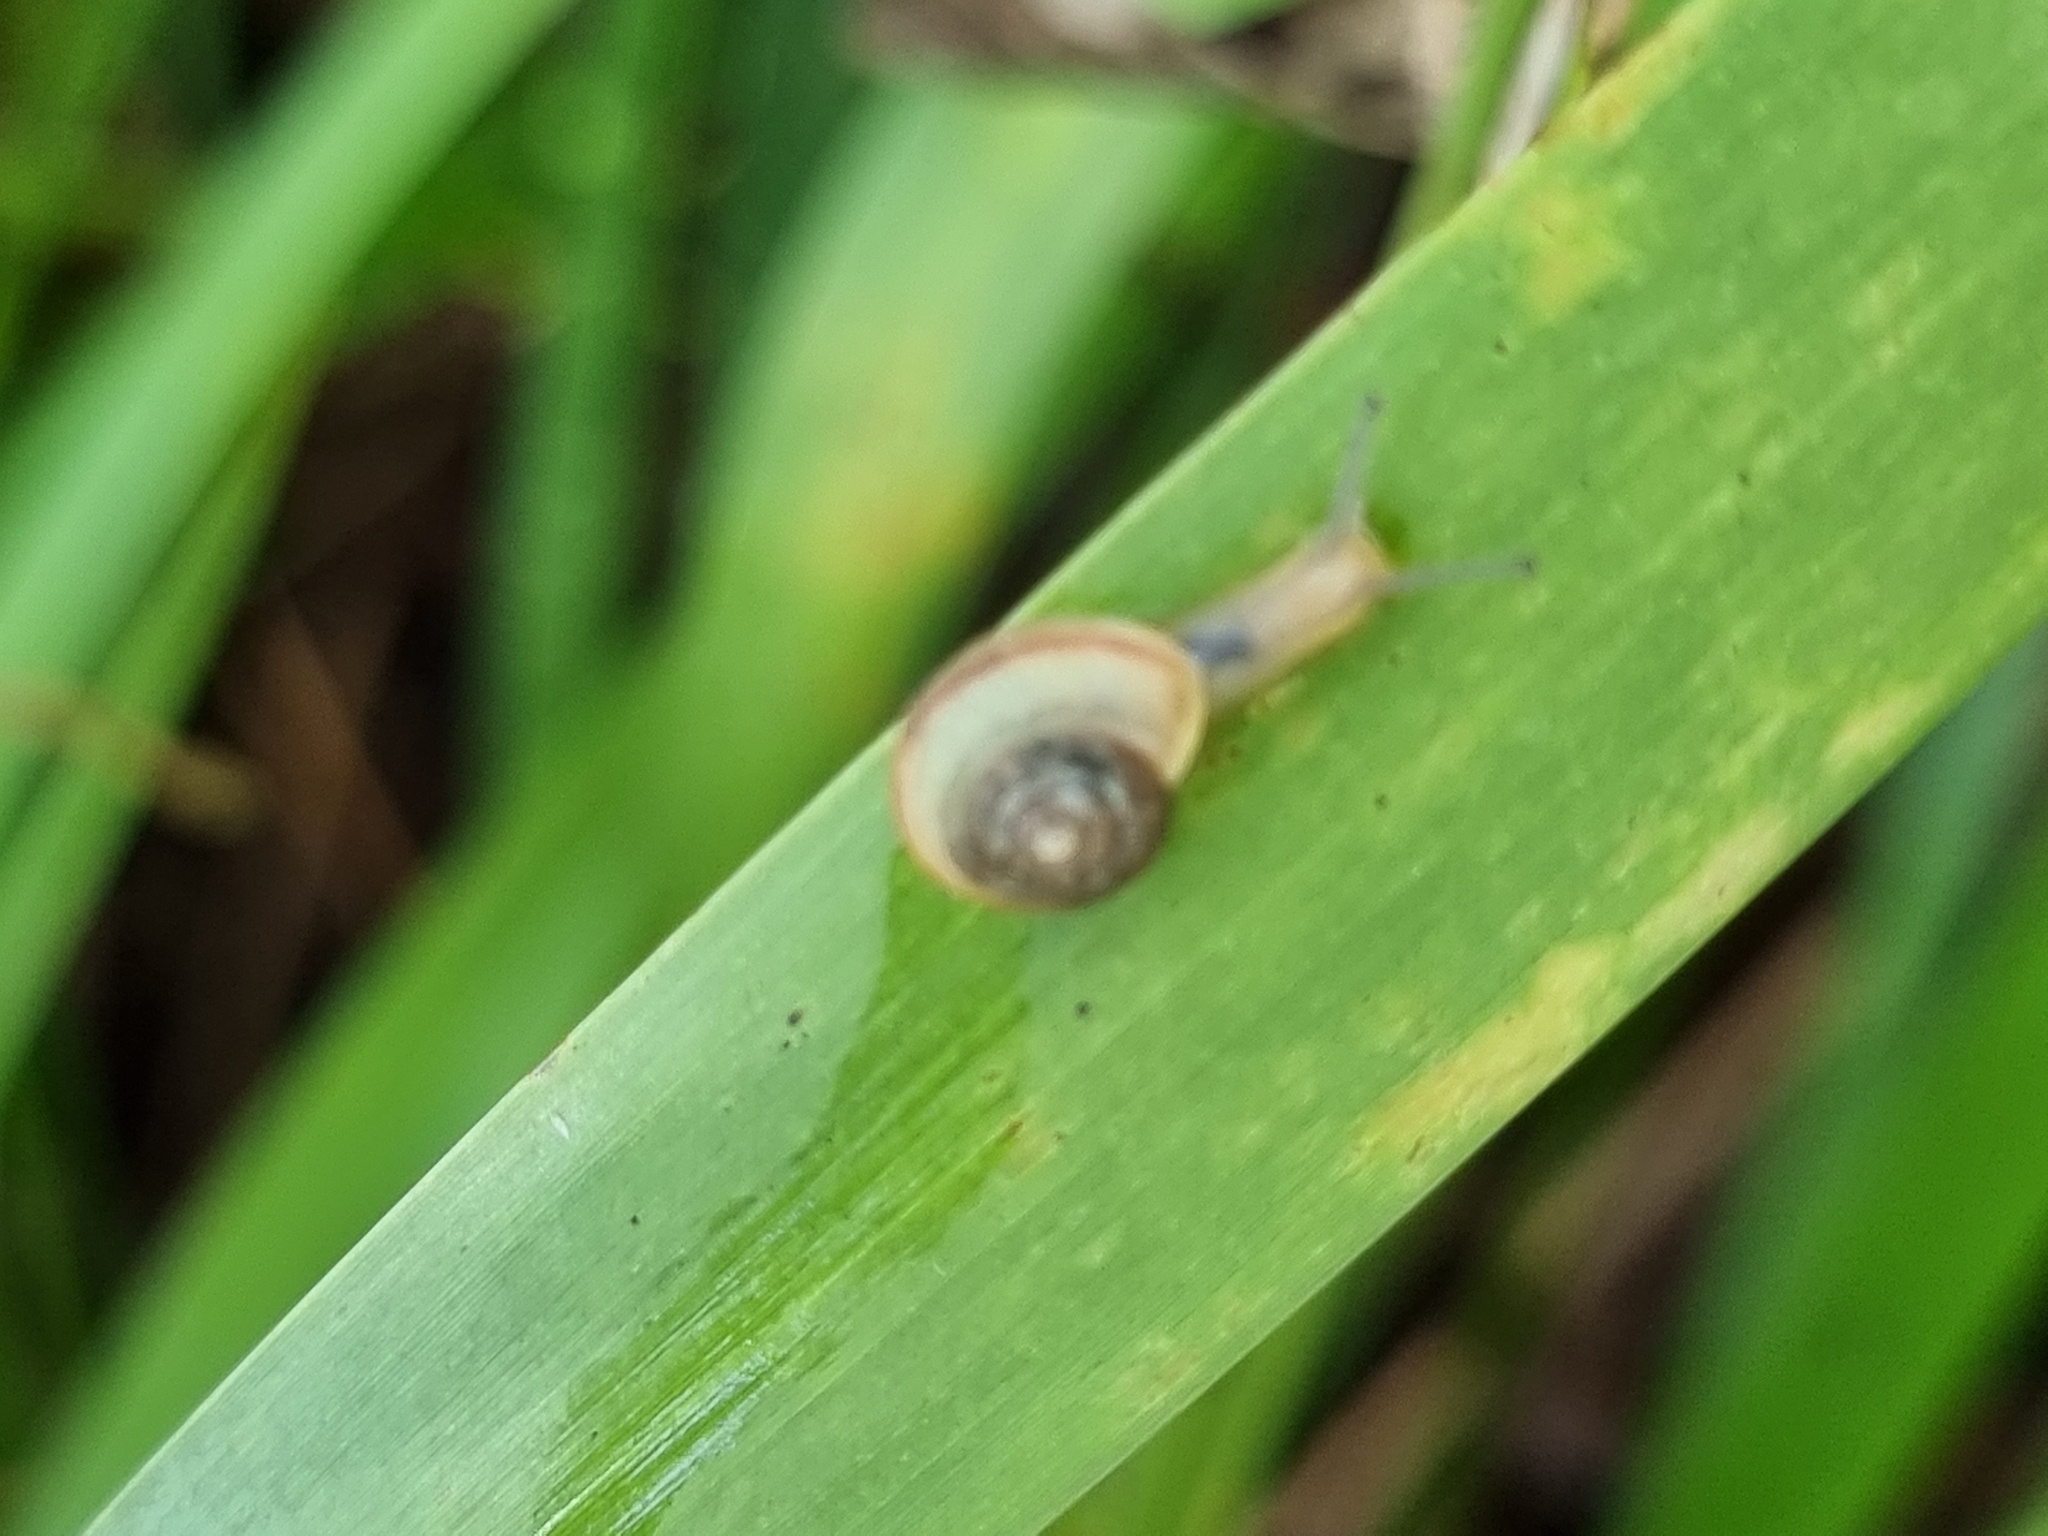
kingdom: Animalia
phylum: Mollusca
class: Gastropoda
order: Stylommatophora
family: Camaenidae
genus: Bradybaena
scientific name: Bradybaena similaris
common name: Asian trampsnail
